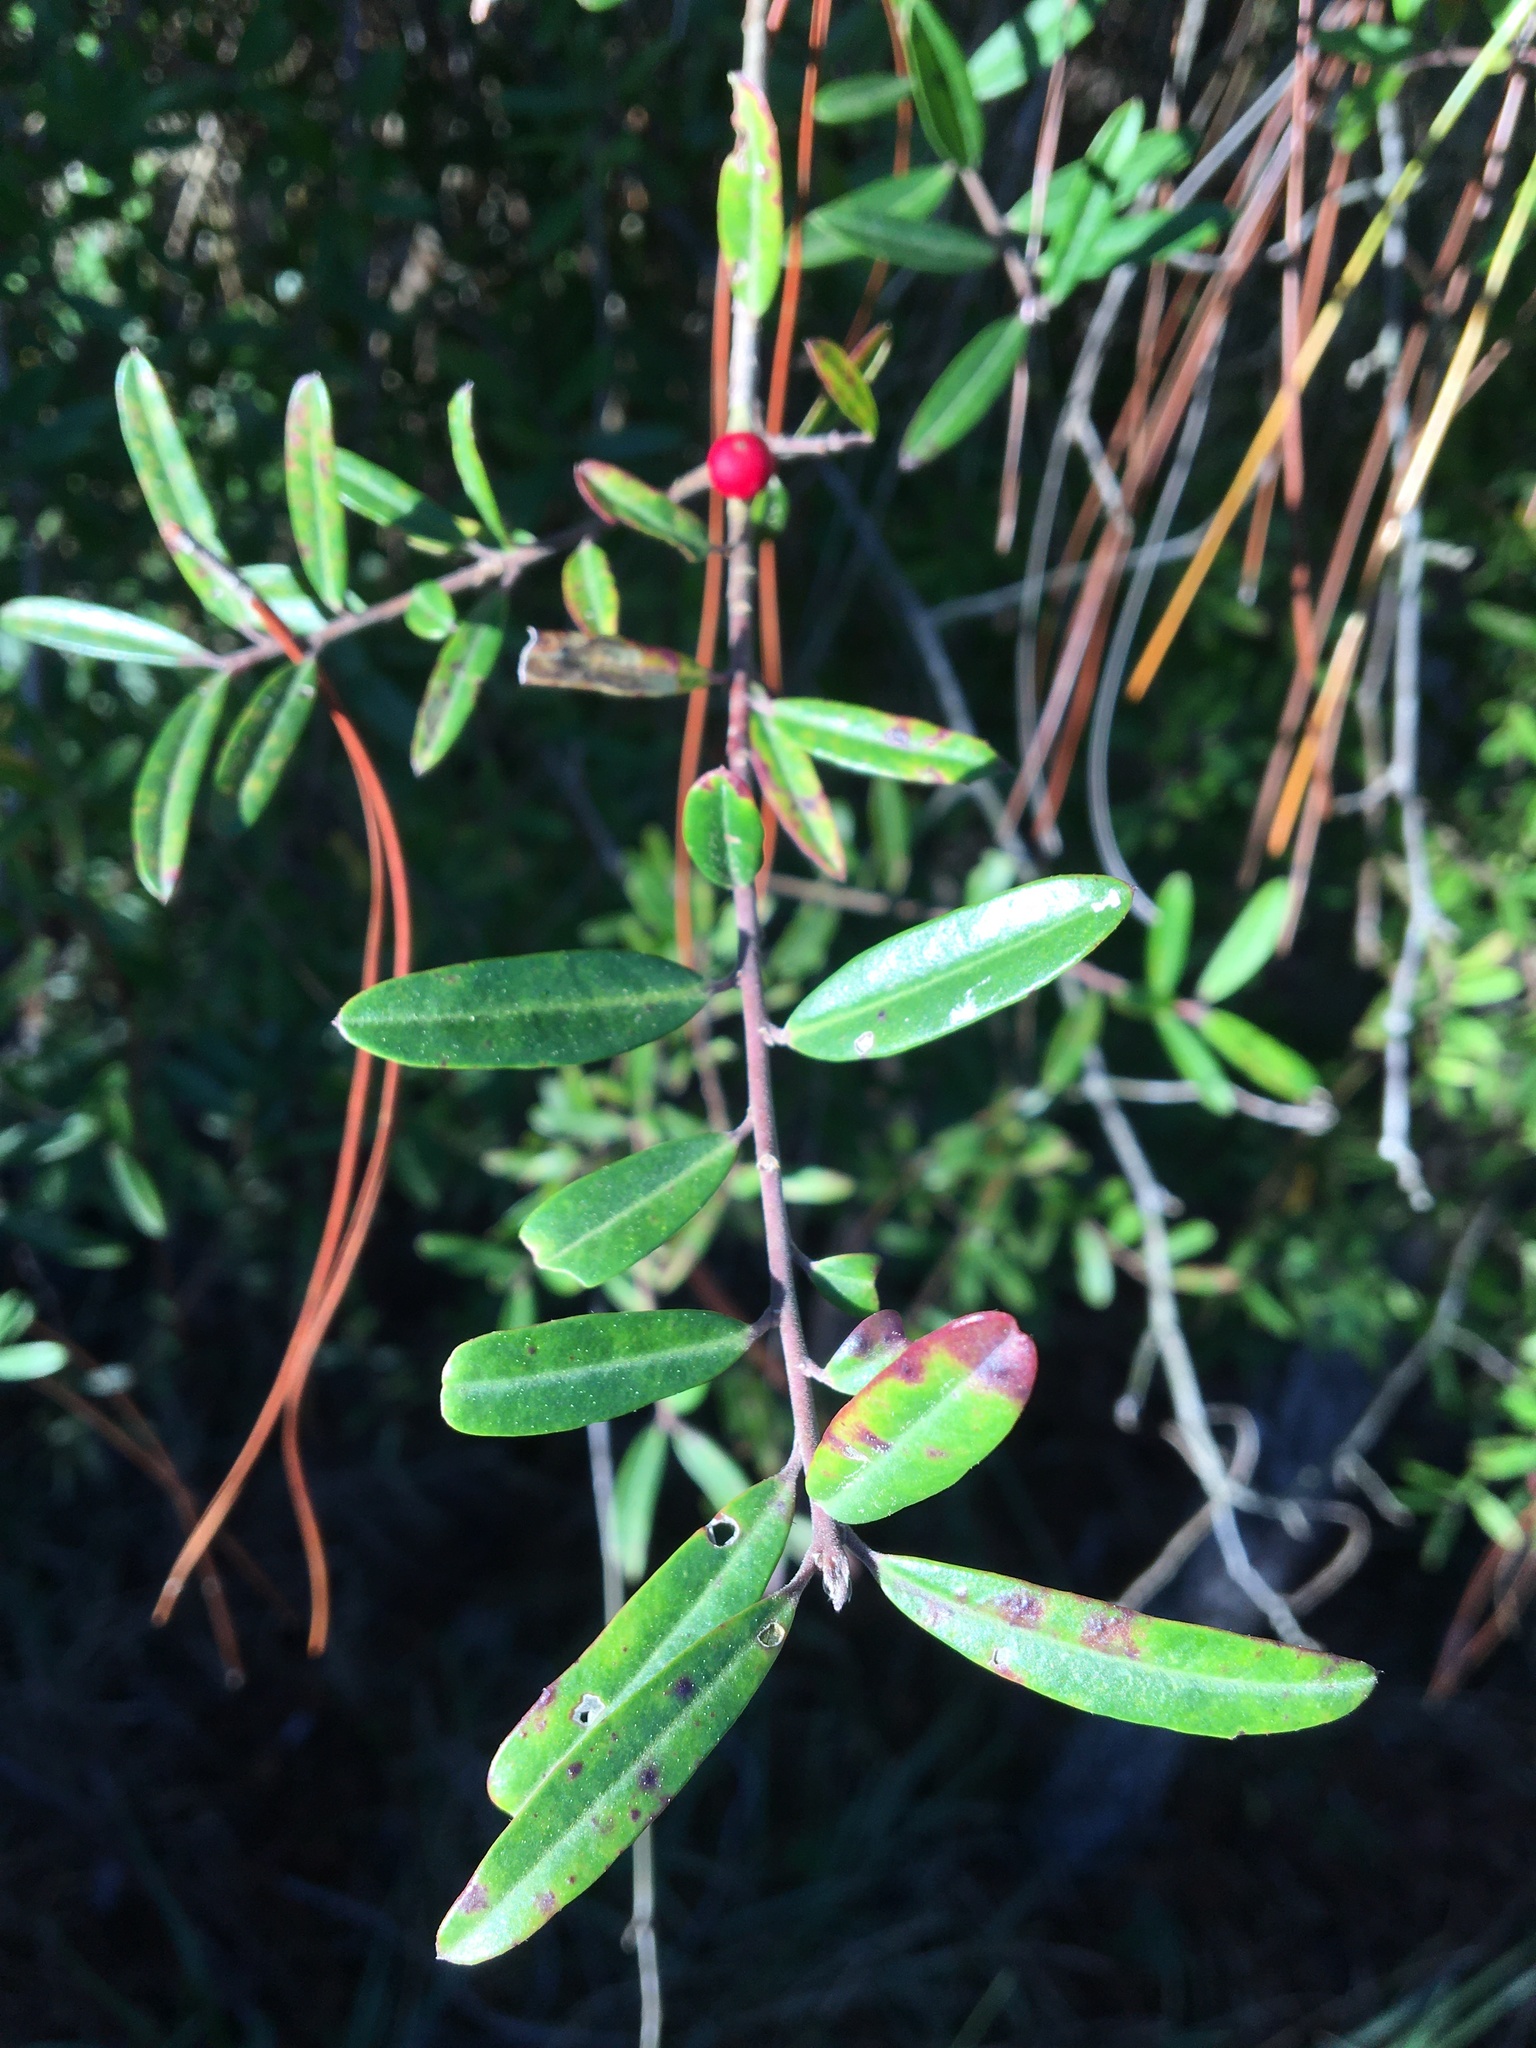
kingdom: Plantae
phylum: Tracheophyta
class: Magnoliopsida
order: Aquifoliales
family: Aquifoliaceae
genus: Ilex
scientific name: Ilex myrtifolia
